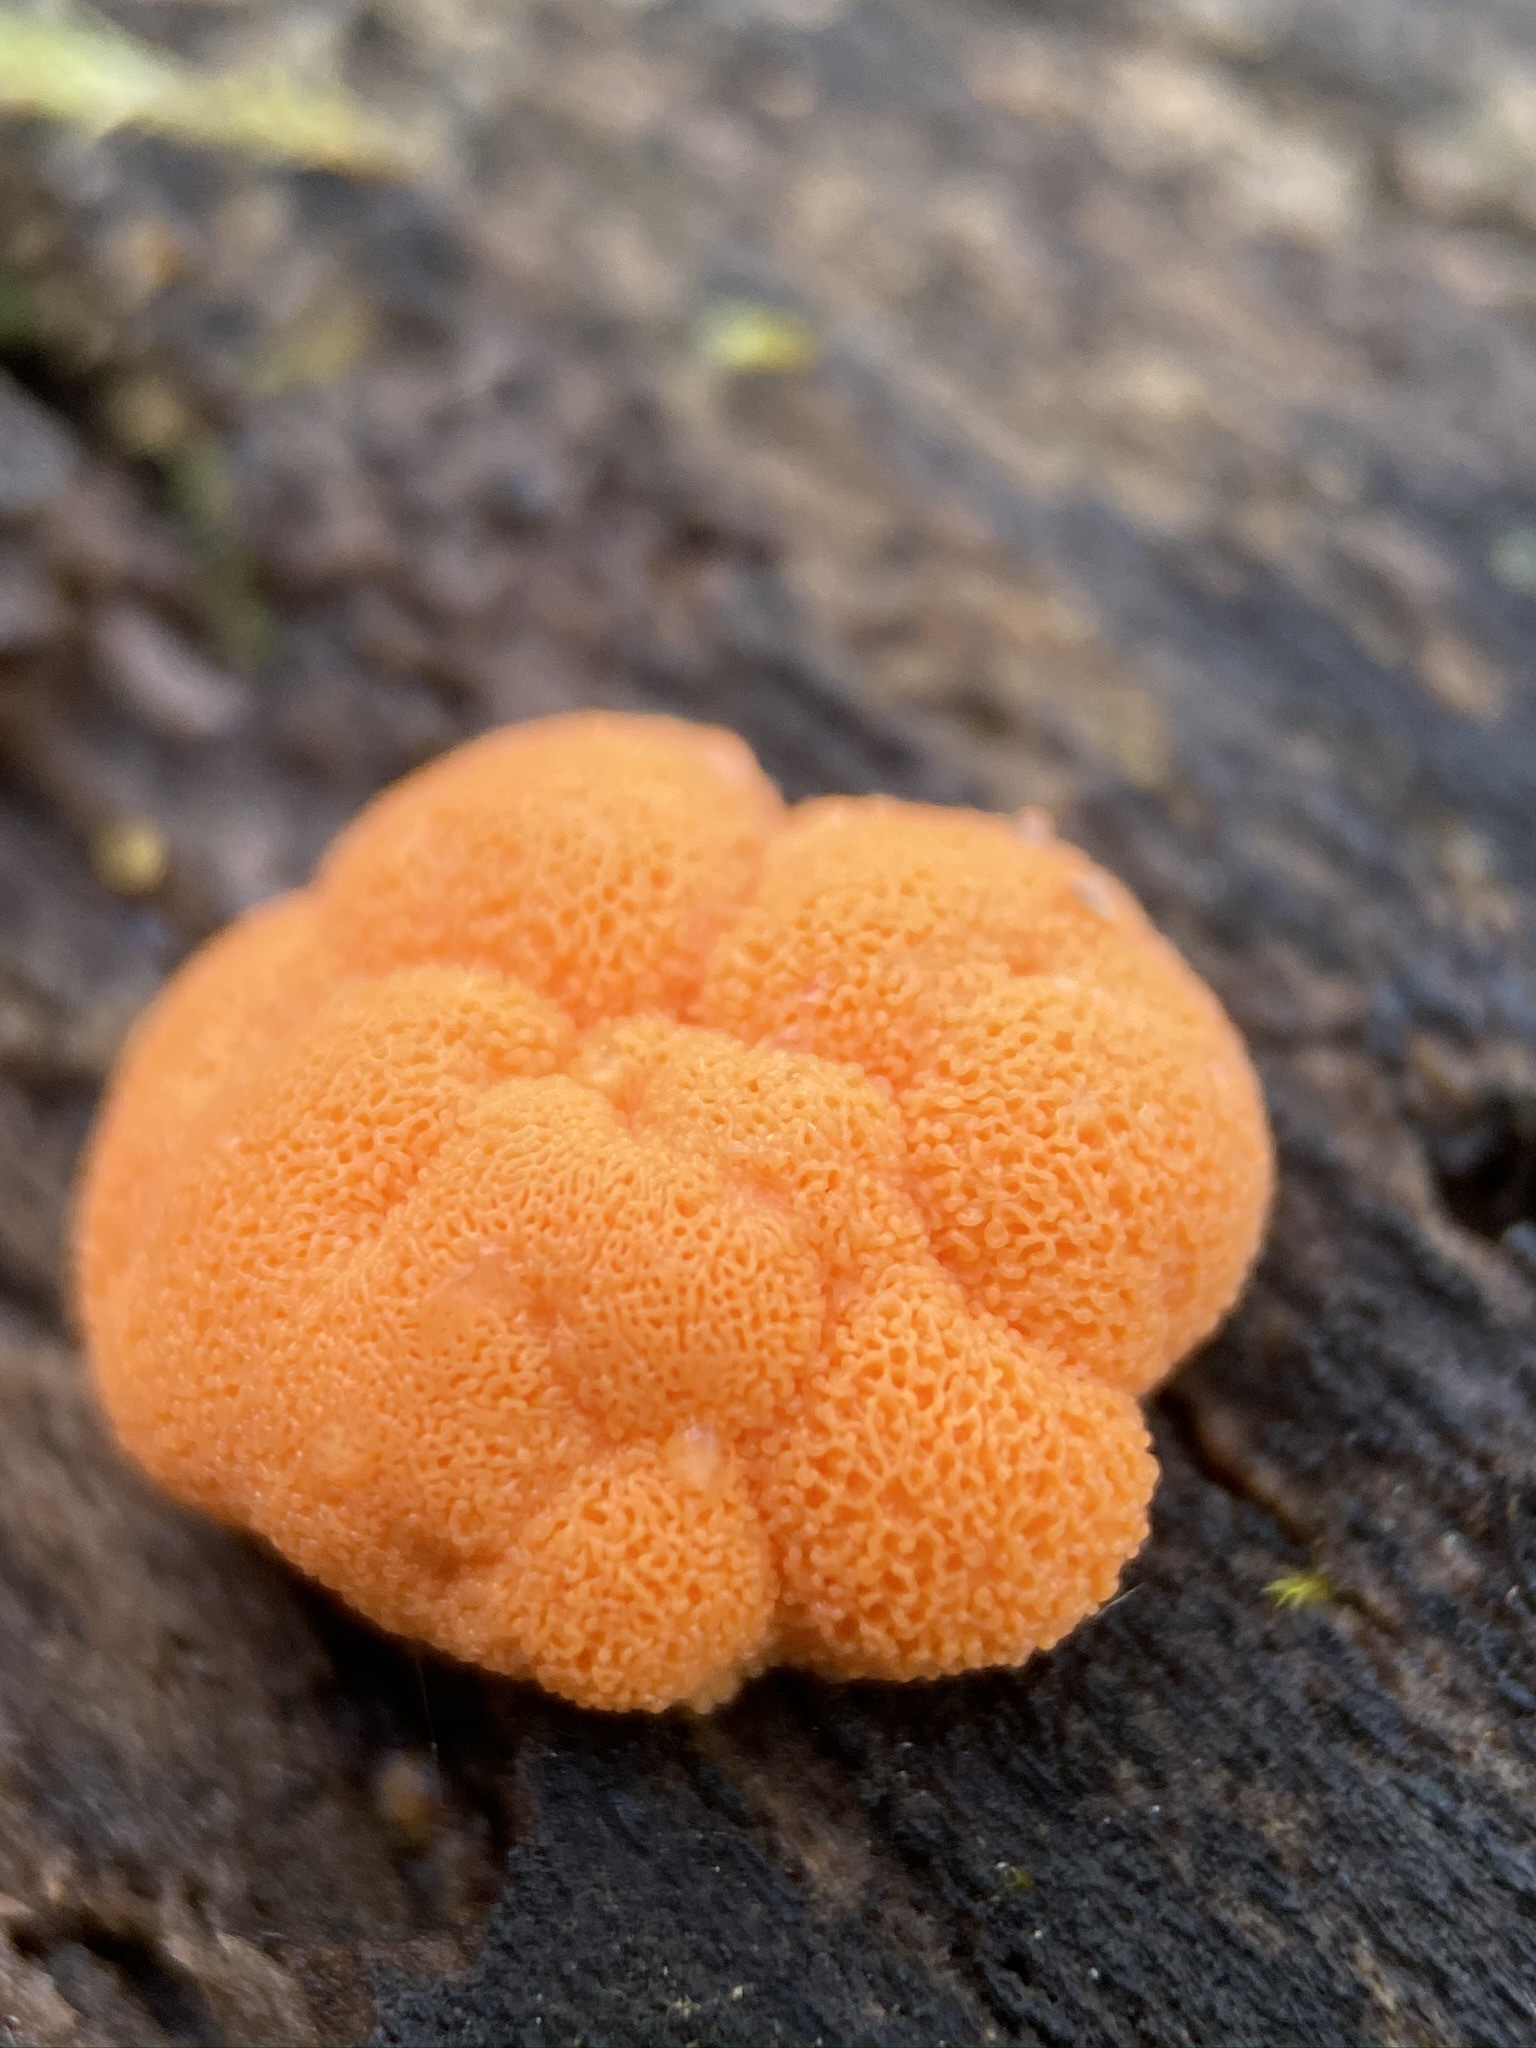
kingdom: Protozoa
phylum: Mycetozoa
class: Myxomycetes
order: Cribrariales
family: Tubiferaceae
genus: Tubifera
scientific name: Tubifera ferruginosa
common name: Red raspberry slime mold
